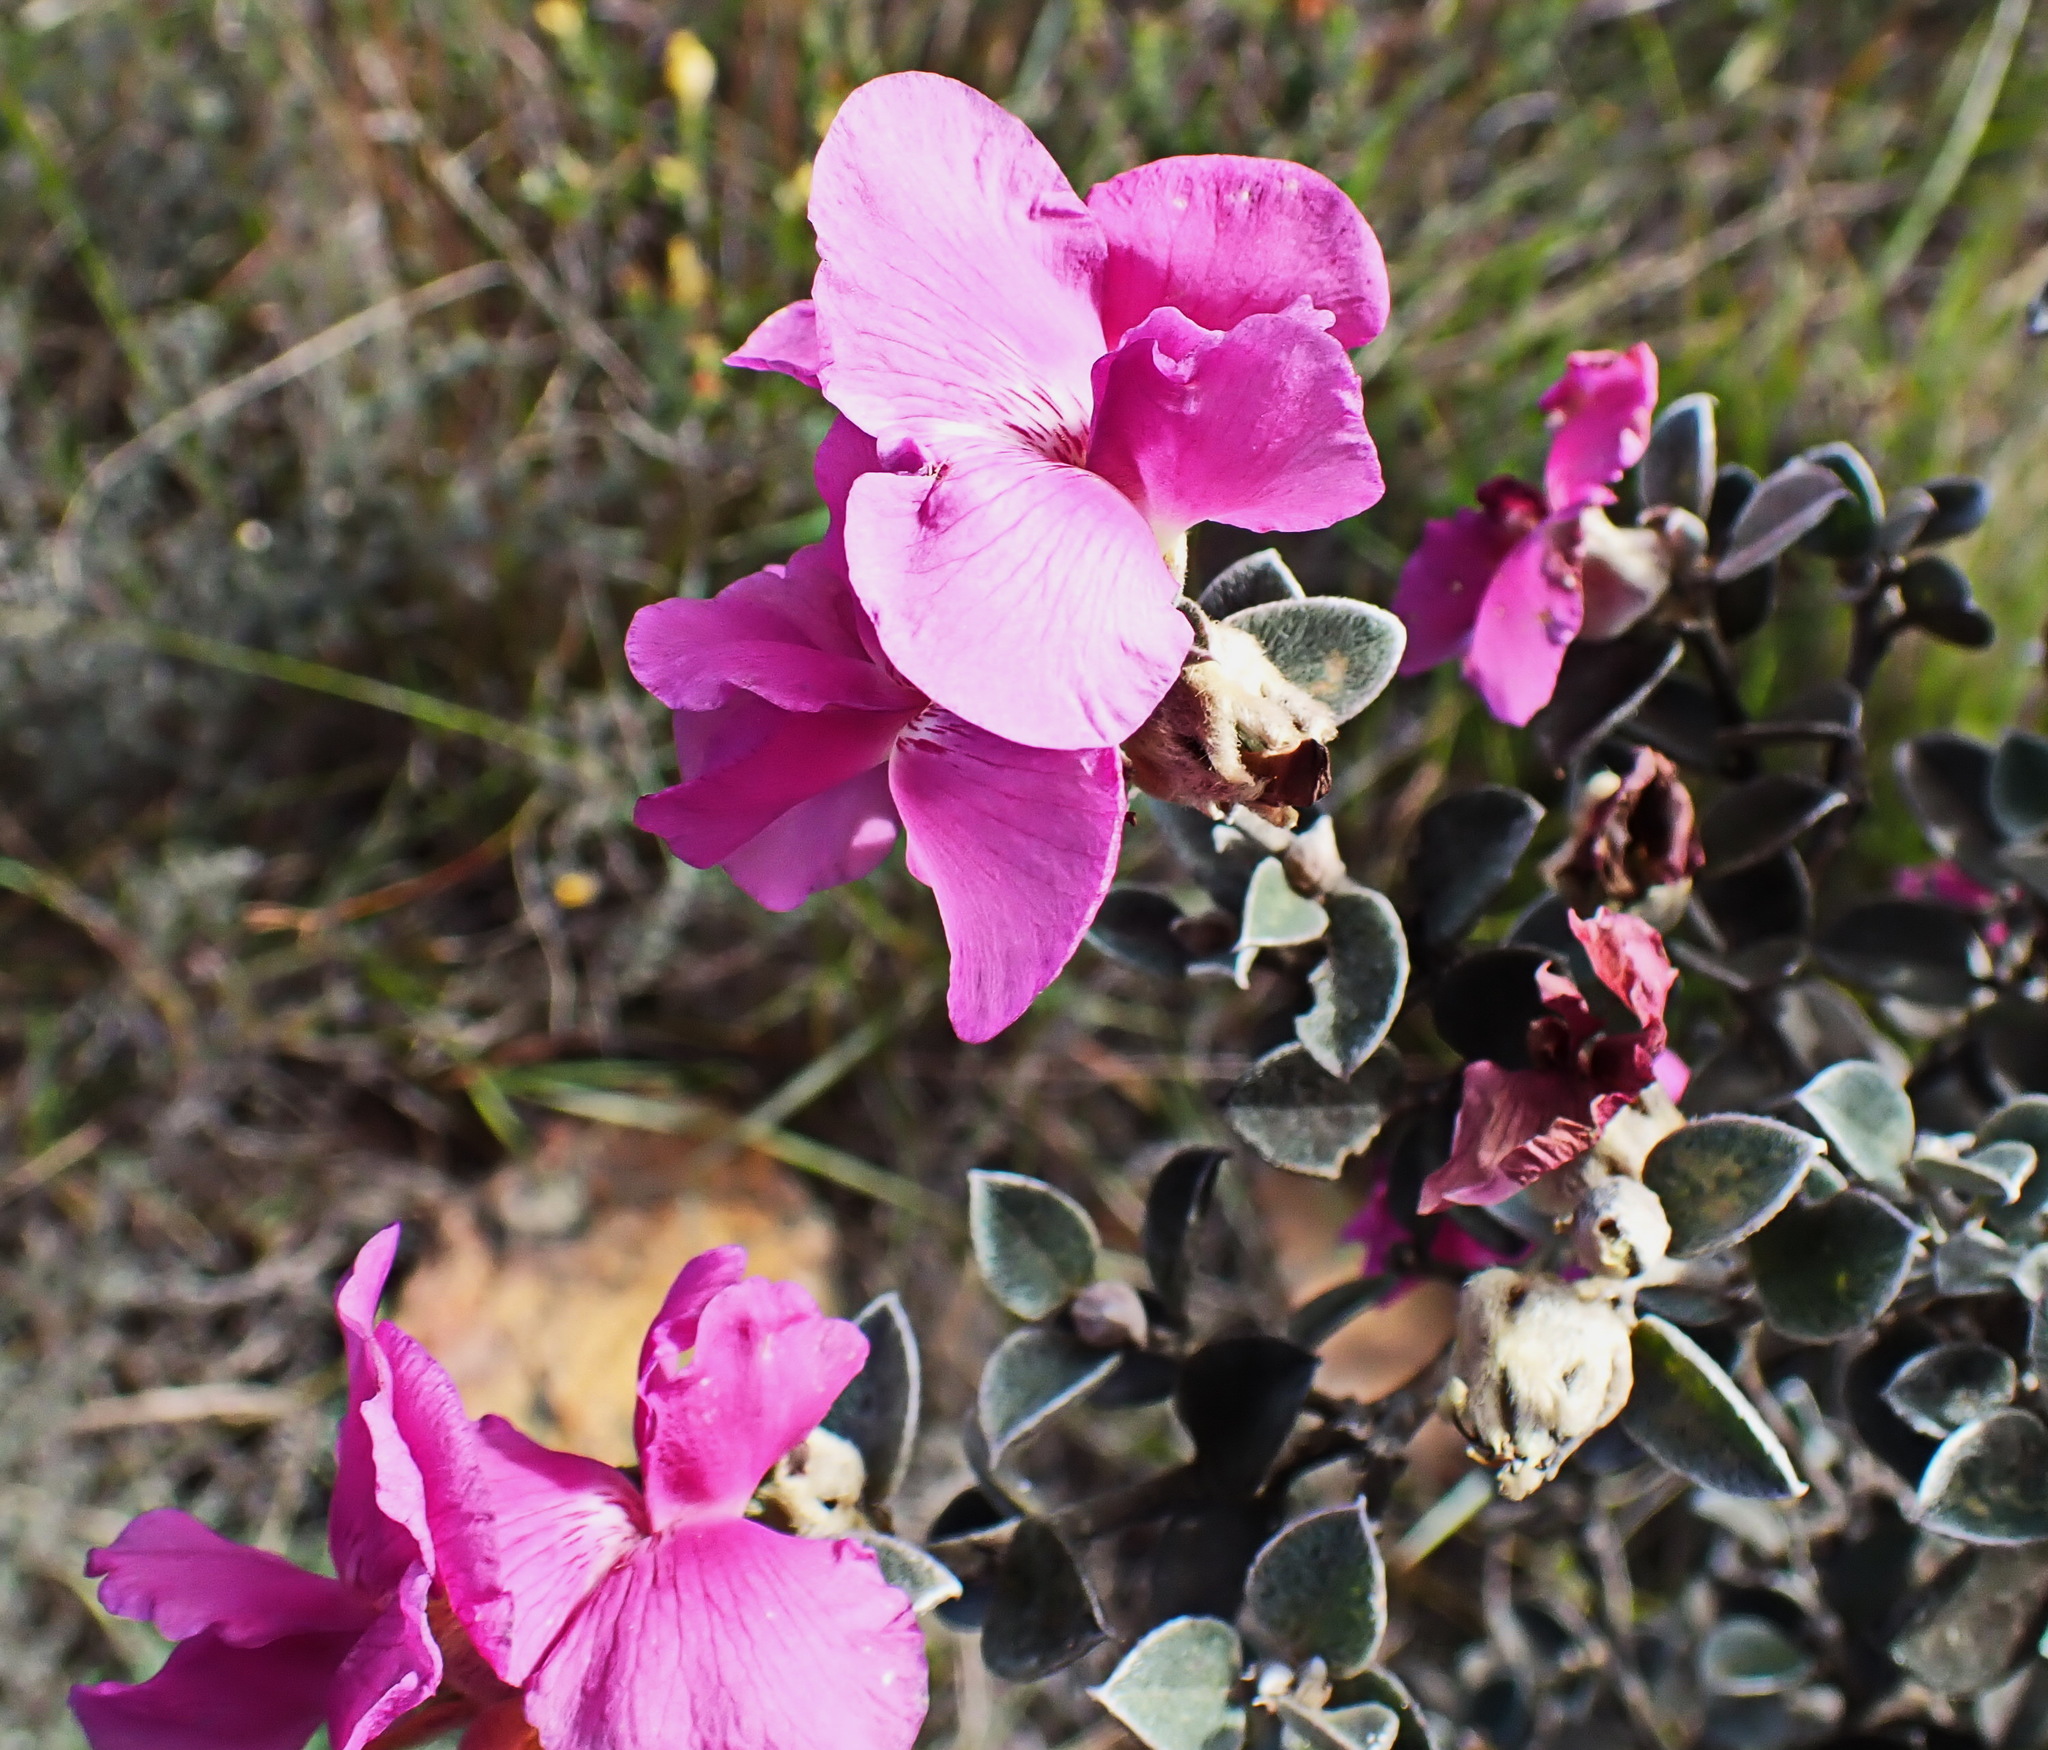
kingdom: Plantae
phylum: Tracheophyta
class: Magnoliopsida
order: Fabales
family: Fabaceae
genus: Podalyria
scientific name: Podalyria burchellii
